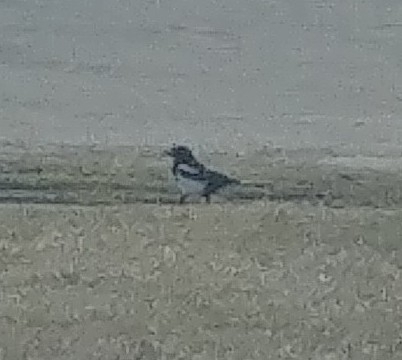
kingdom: Animalia
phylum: Chordata
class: Aves
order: Passeriformes
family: Corvidae
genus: Pica
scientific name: Pica hudsonia
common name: Black-billed magpie
